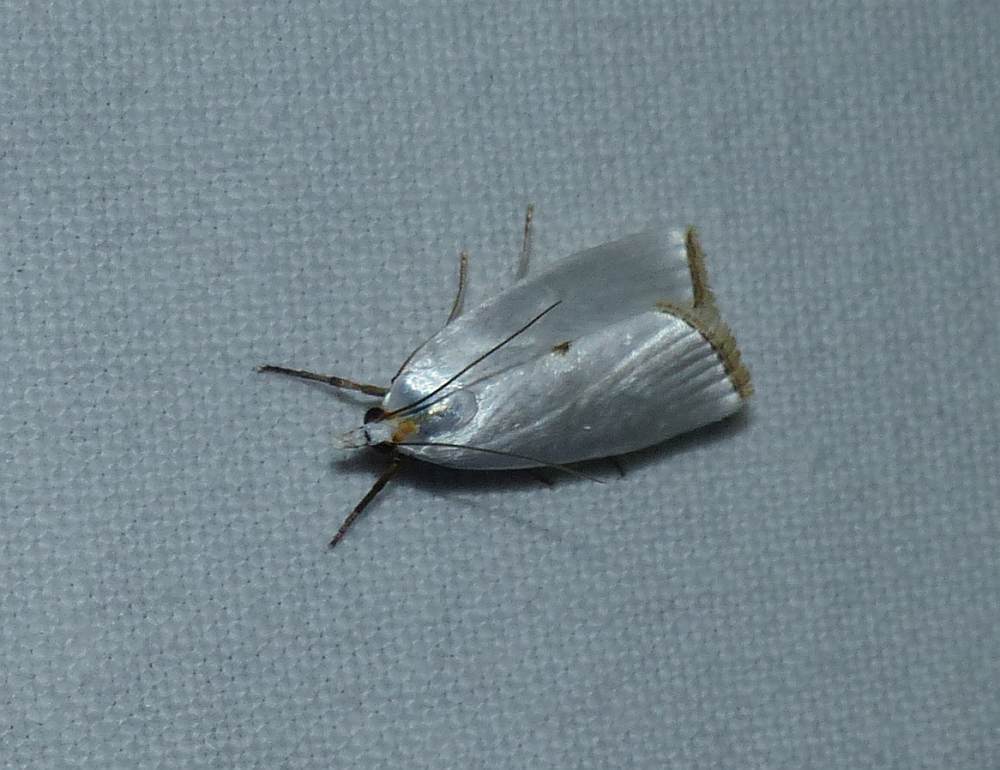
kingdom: Animalia
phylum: Arthropoda
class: Insecta
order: Lepidoptera
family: Crambidae
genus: Argyria
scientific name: Argyria nivalis
